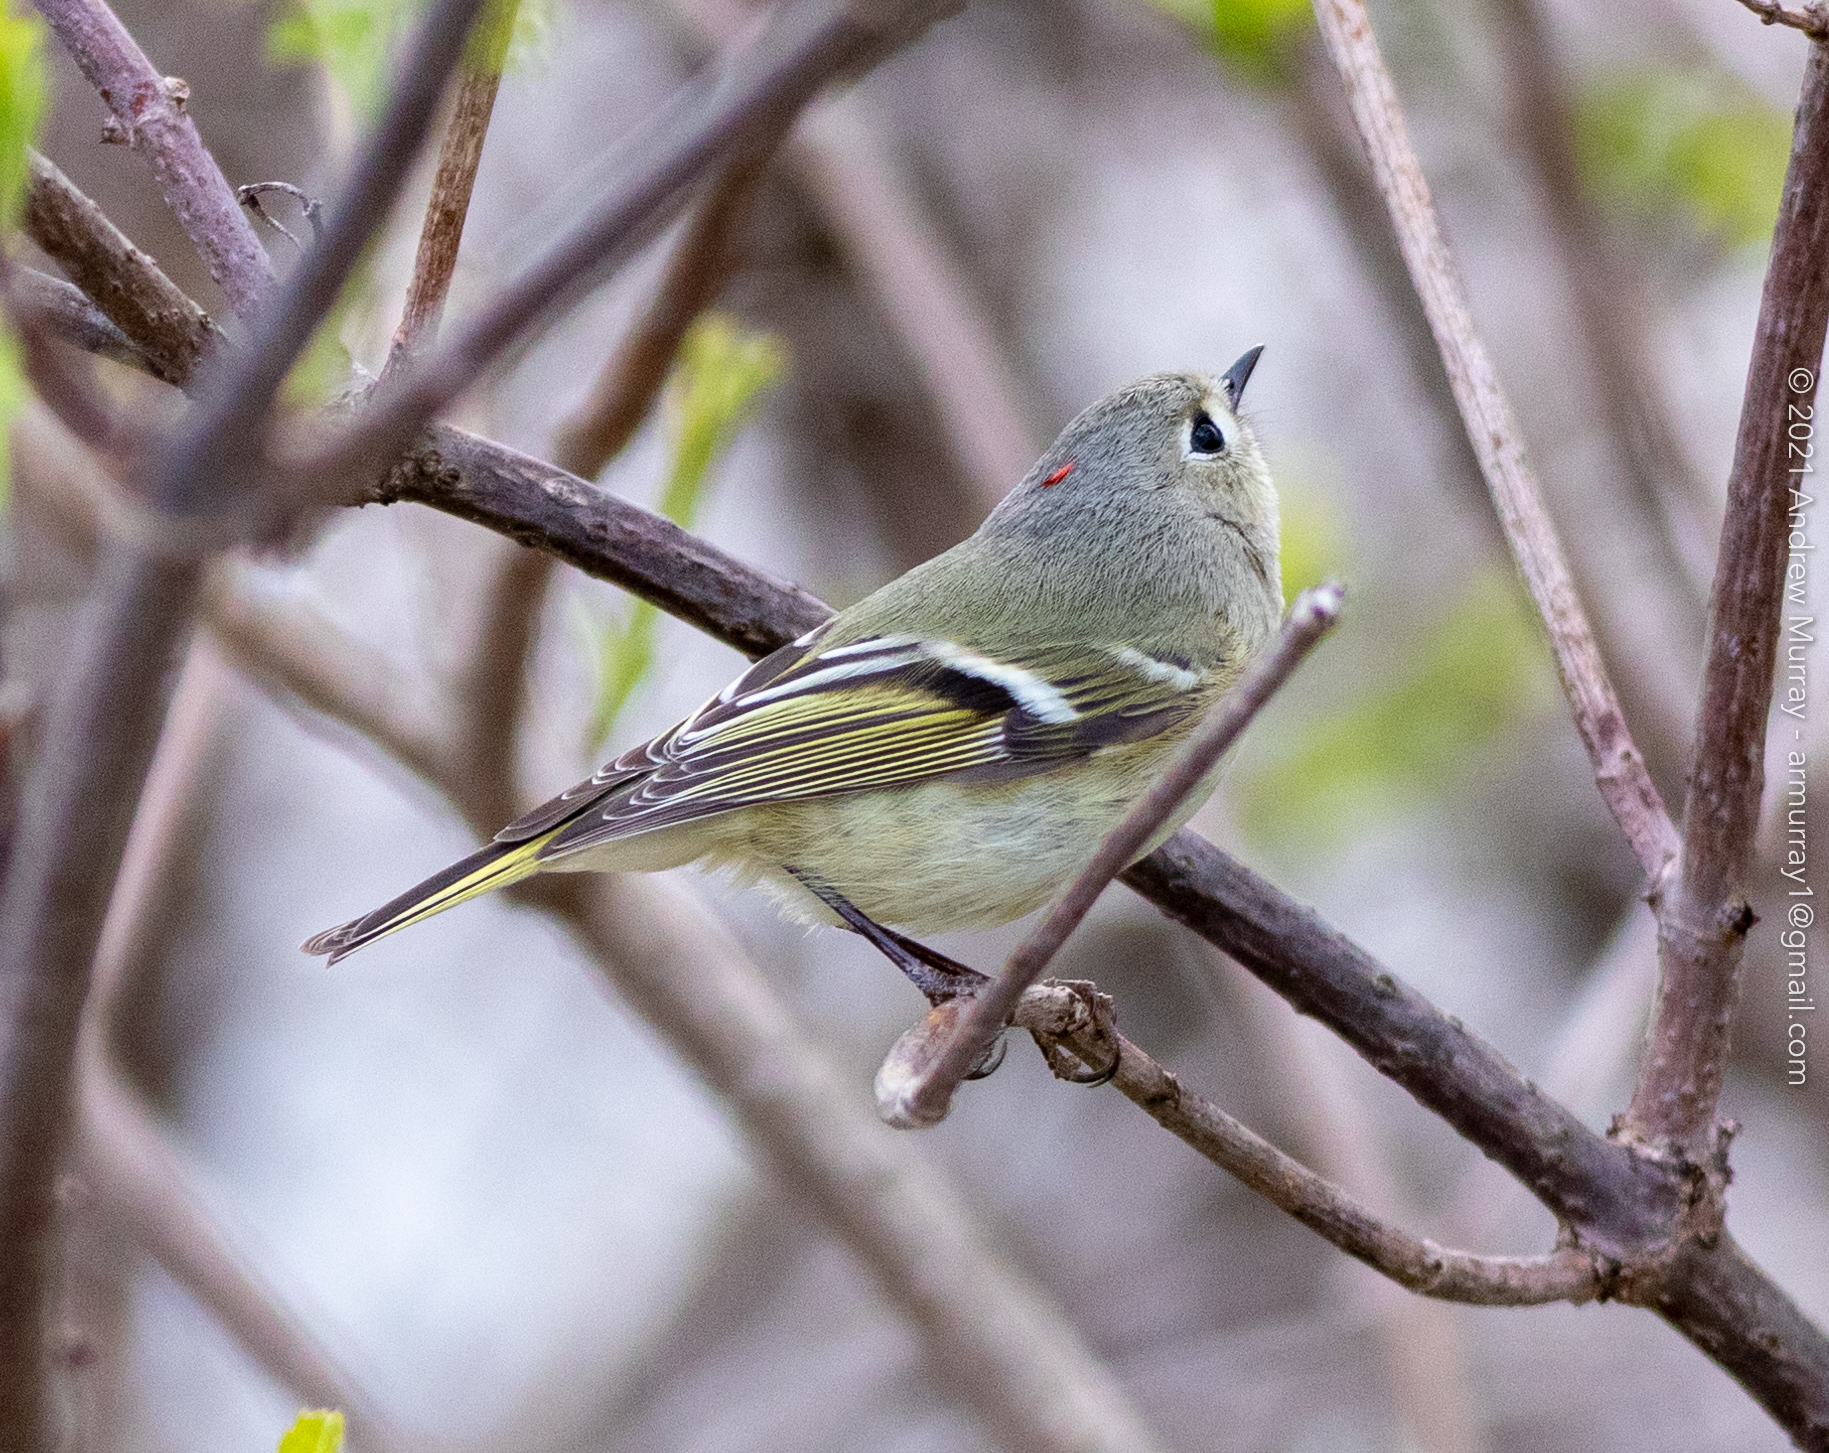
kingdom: Animalia
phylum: Chordata
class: Aves
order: Passeriformes
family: Regulidae
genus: Regulus
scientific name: Regulus calendula
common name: Ruby-crowned kinglet
